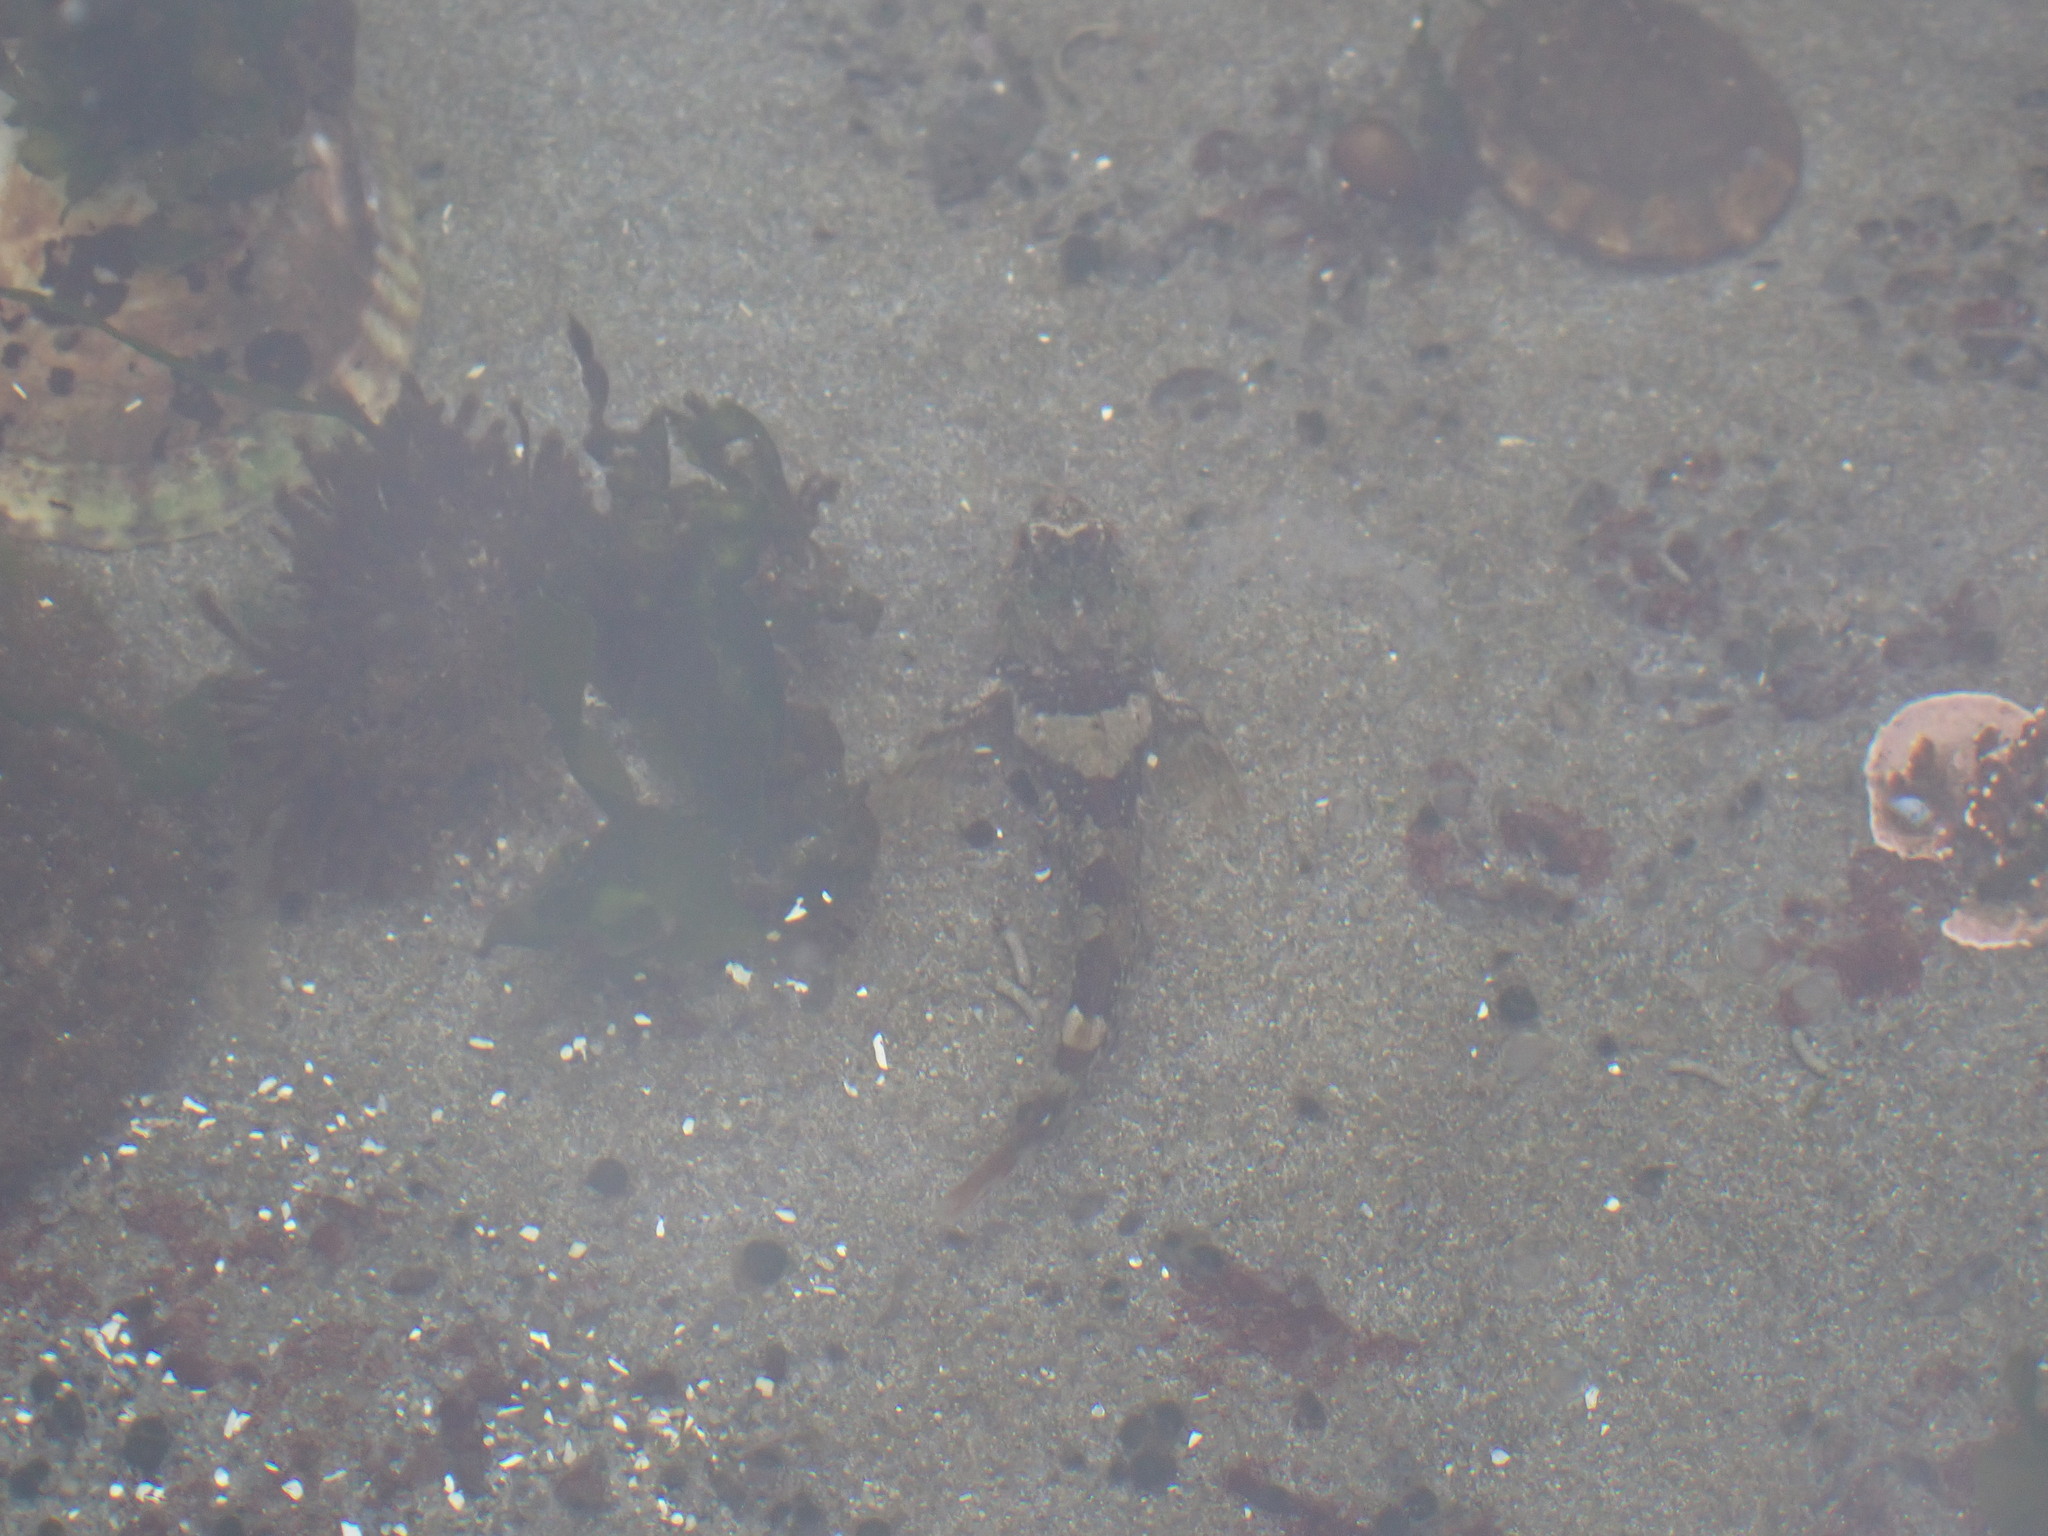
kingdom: Animalia
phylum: Chordata
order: Scorpaeniformes
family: Cottidae
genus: Oligocottus
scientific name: Oligocottus maculosus
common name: Tidepool sculpin
